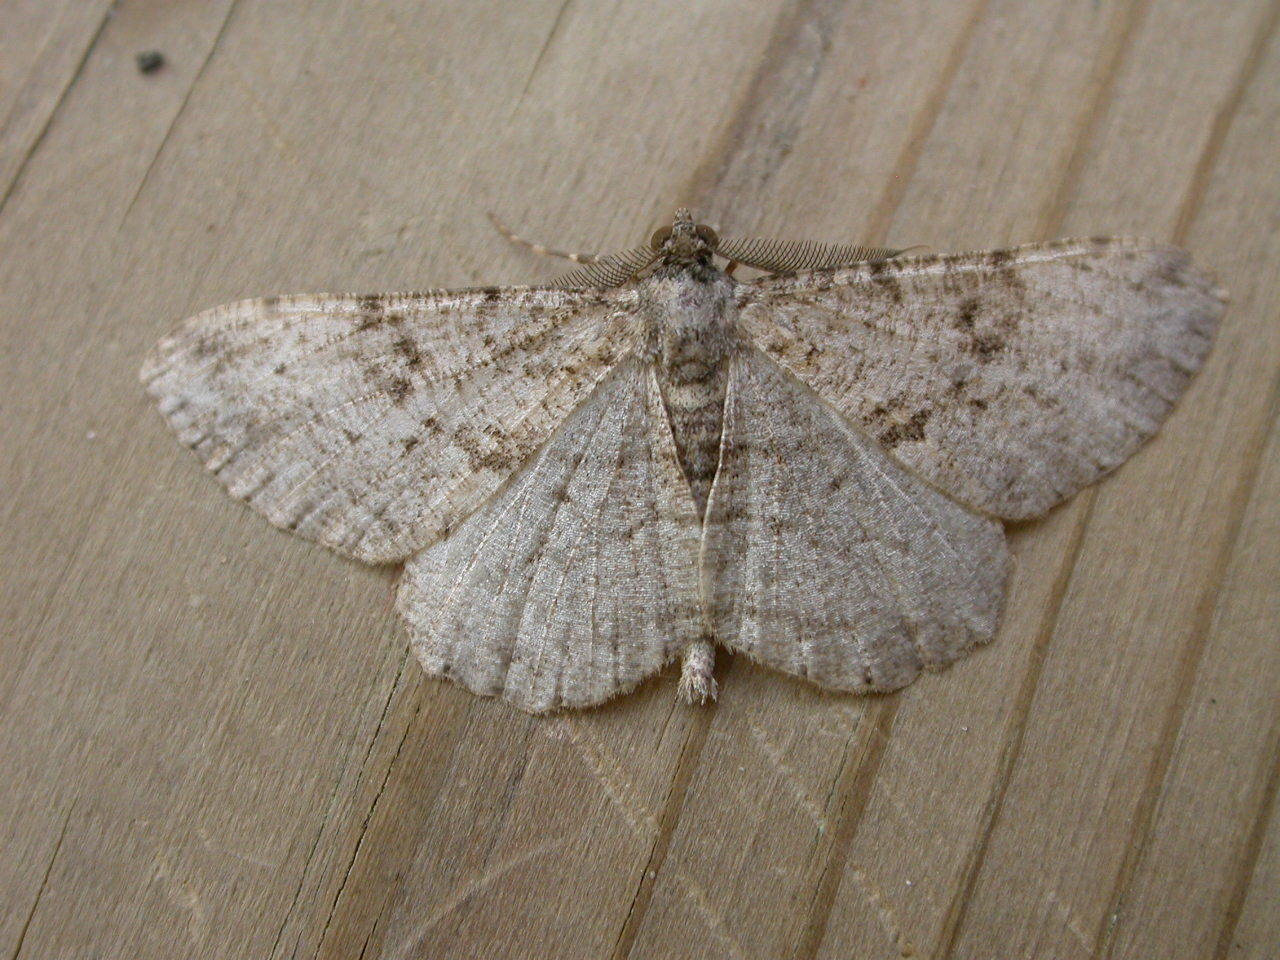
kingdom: Animalia
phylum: Arthropoda
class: Insecta
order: Lepidoptera
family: Geometridae
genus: Peribatodes
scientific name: Peribatodes rhomboidaria
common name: Willow beauty
